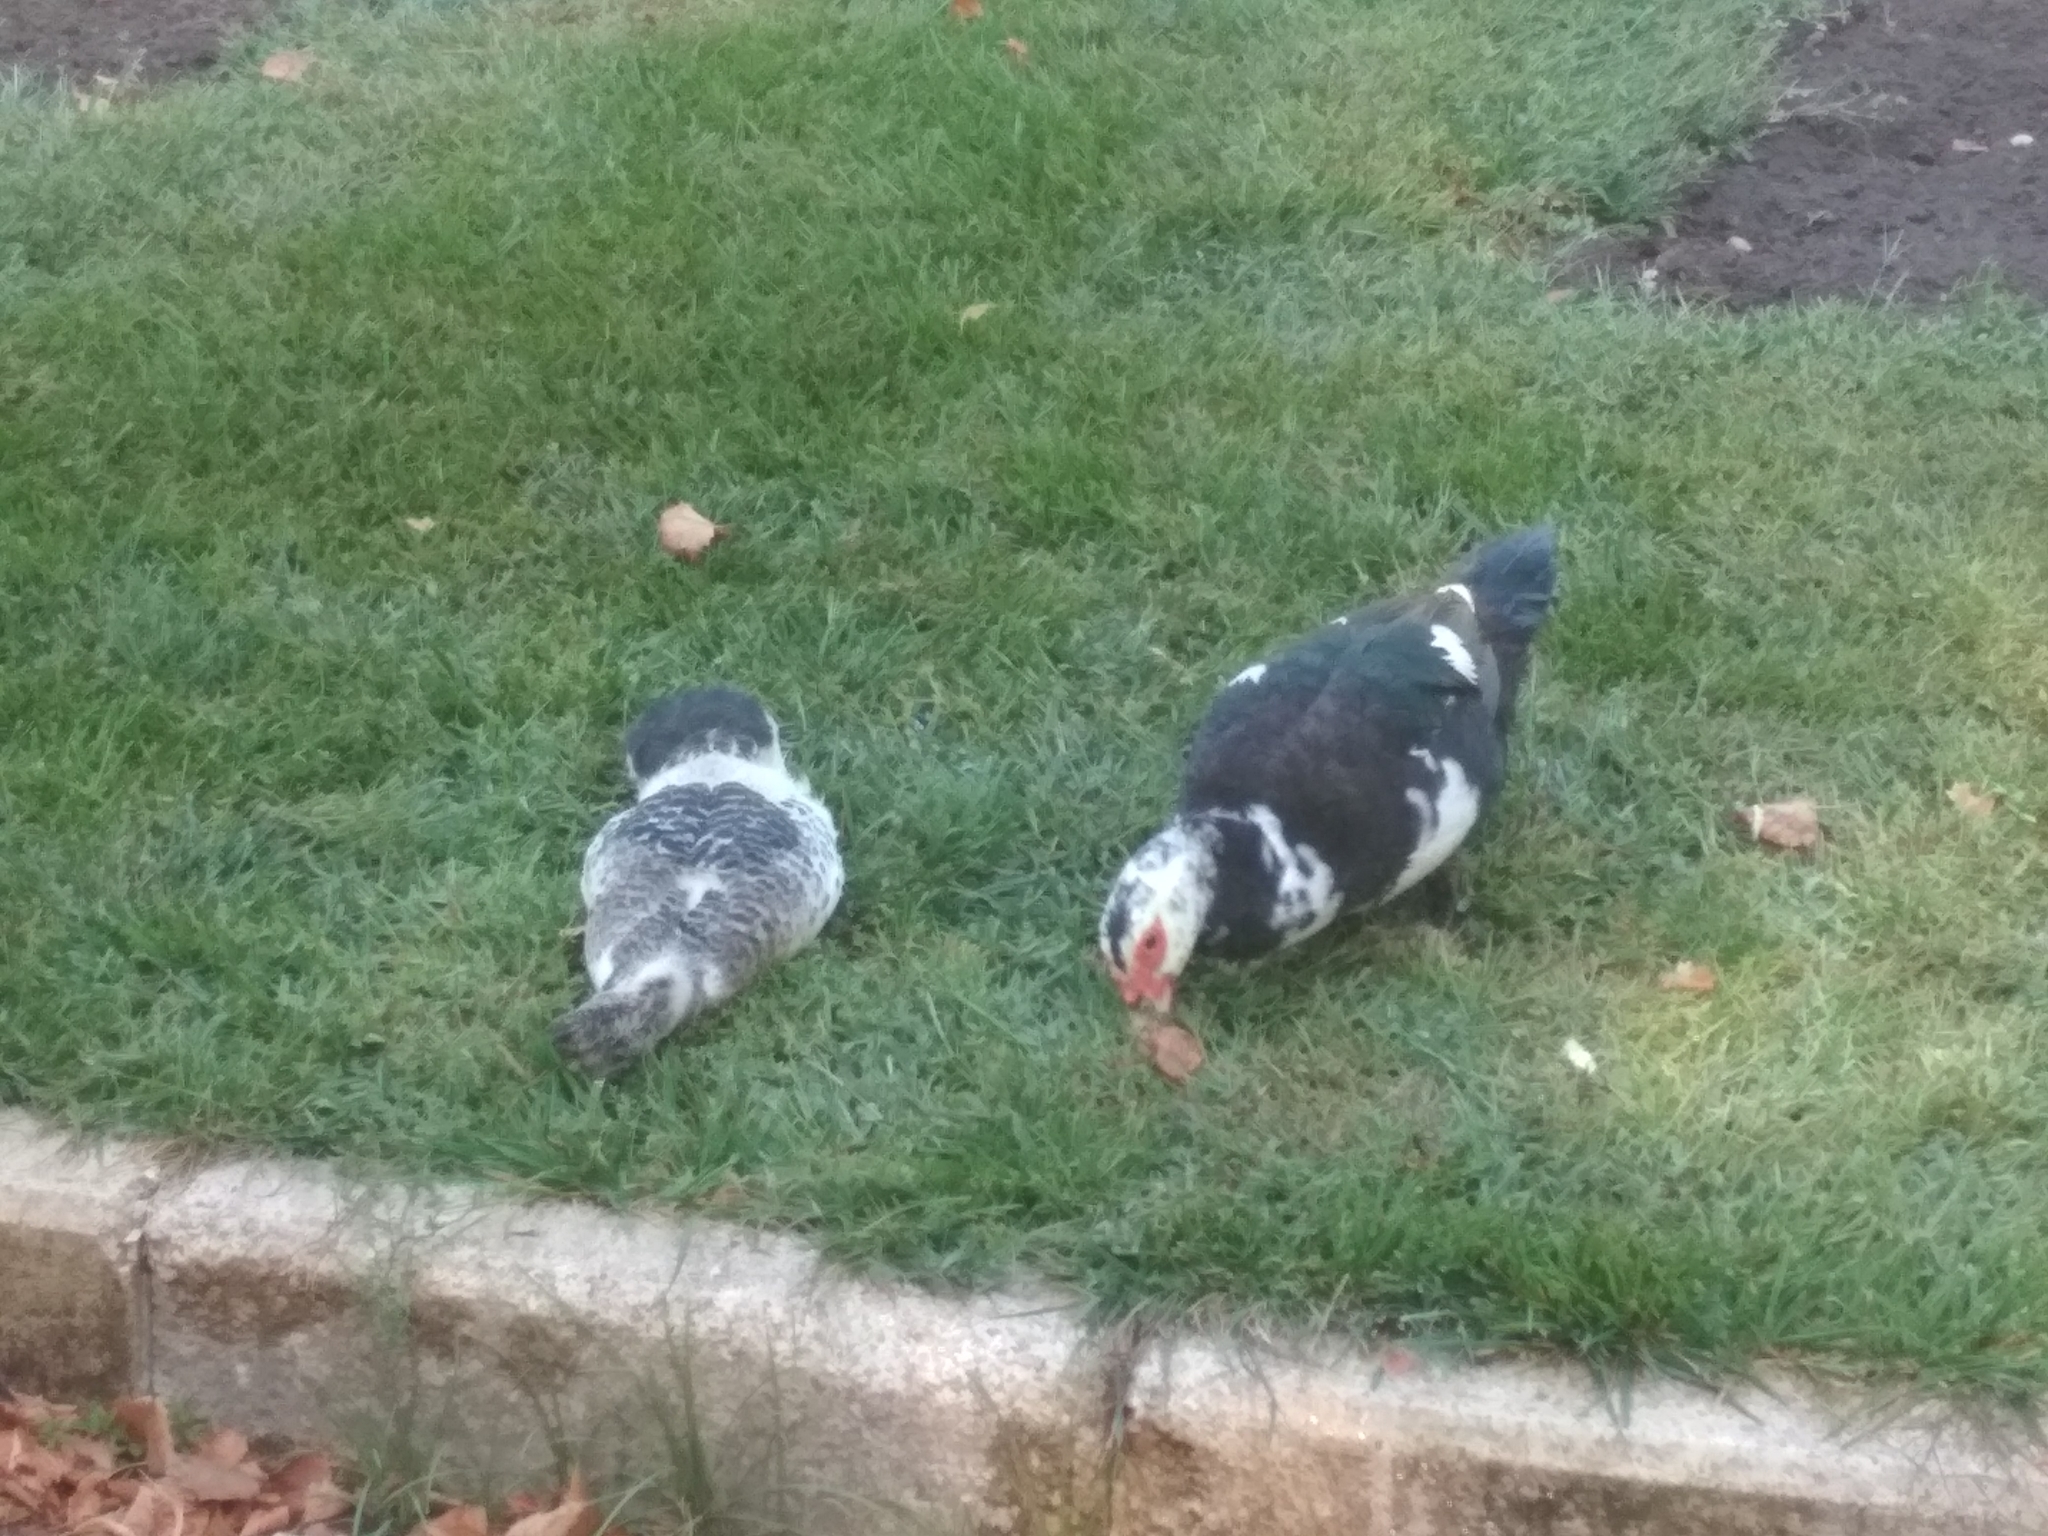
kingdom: Animalia
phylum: Chordata
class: Aves
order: Anseriformes
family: Anatidae
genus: Cairina
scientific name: Cairina moschata
